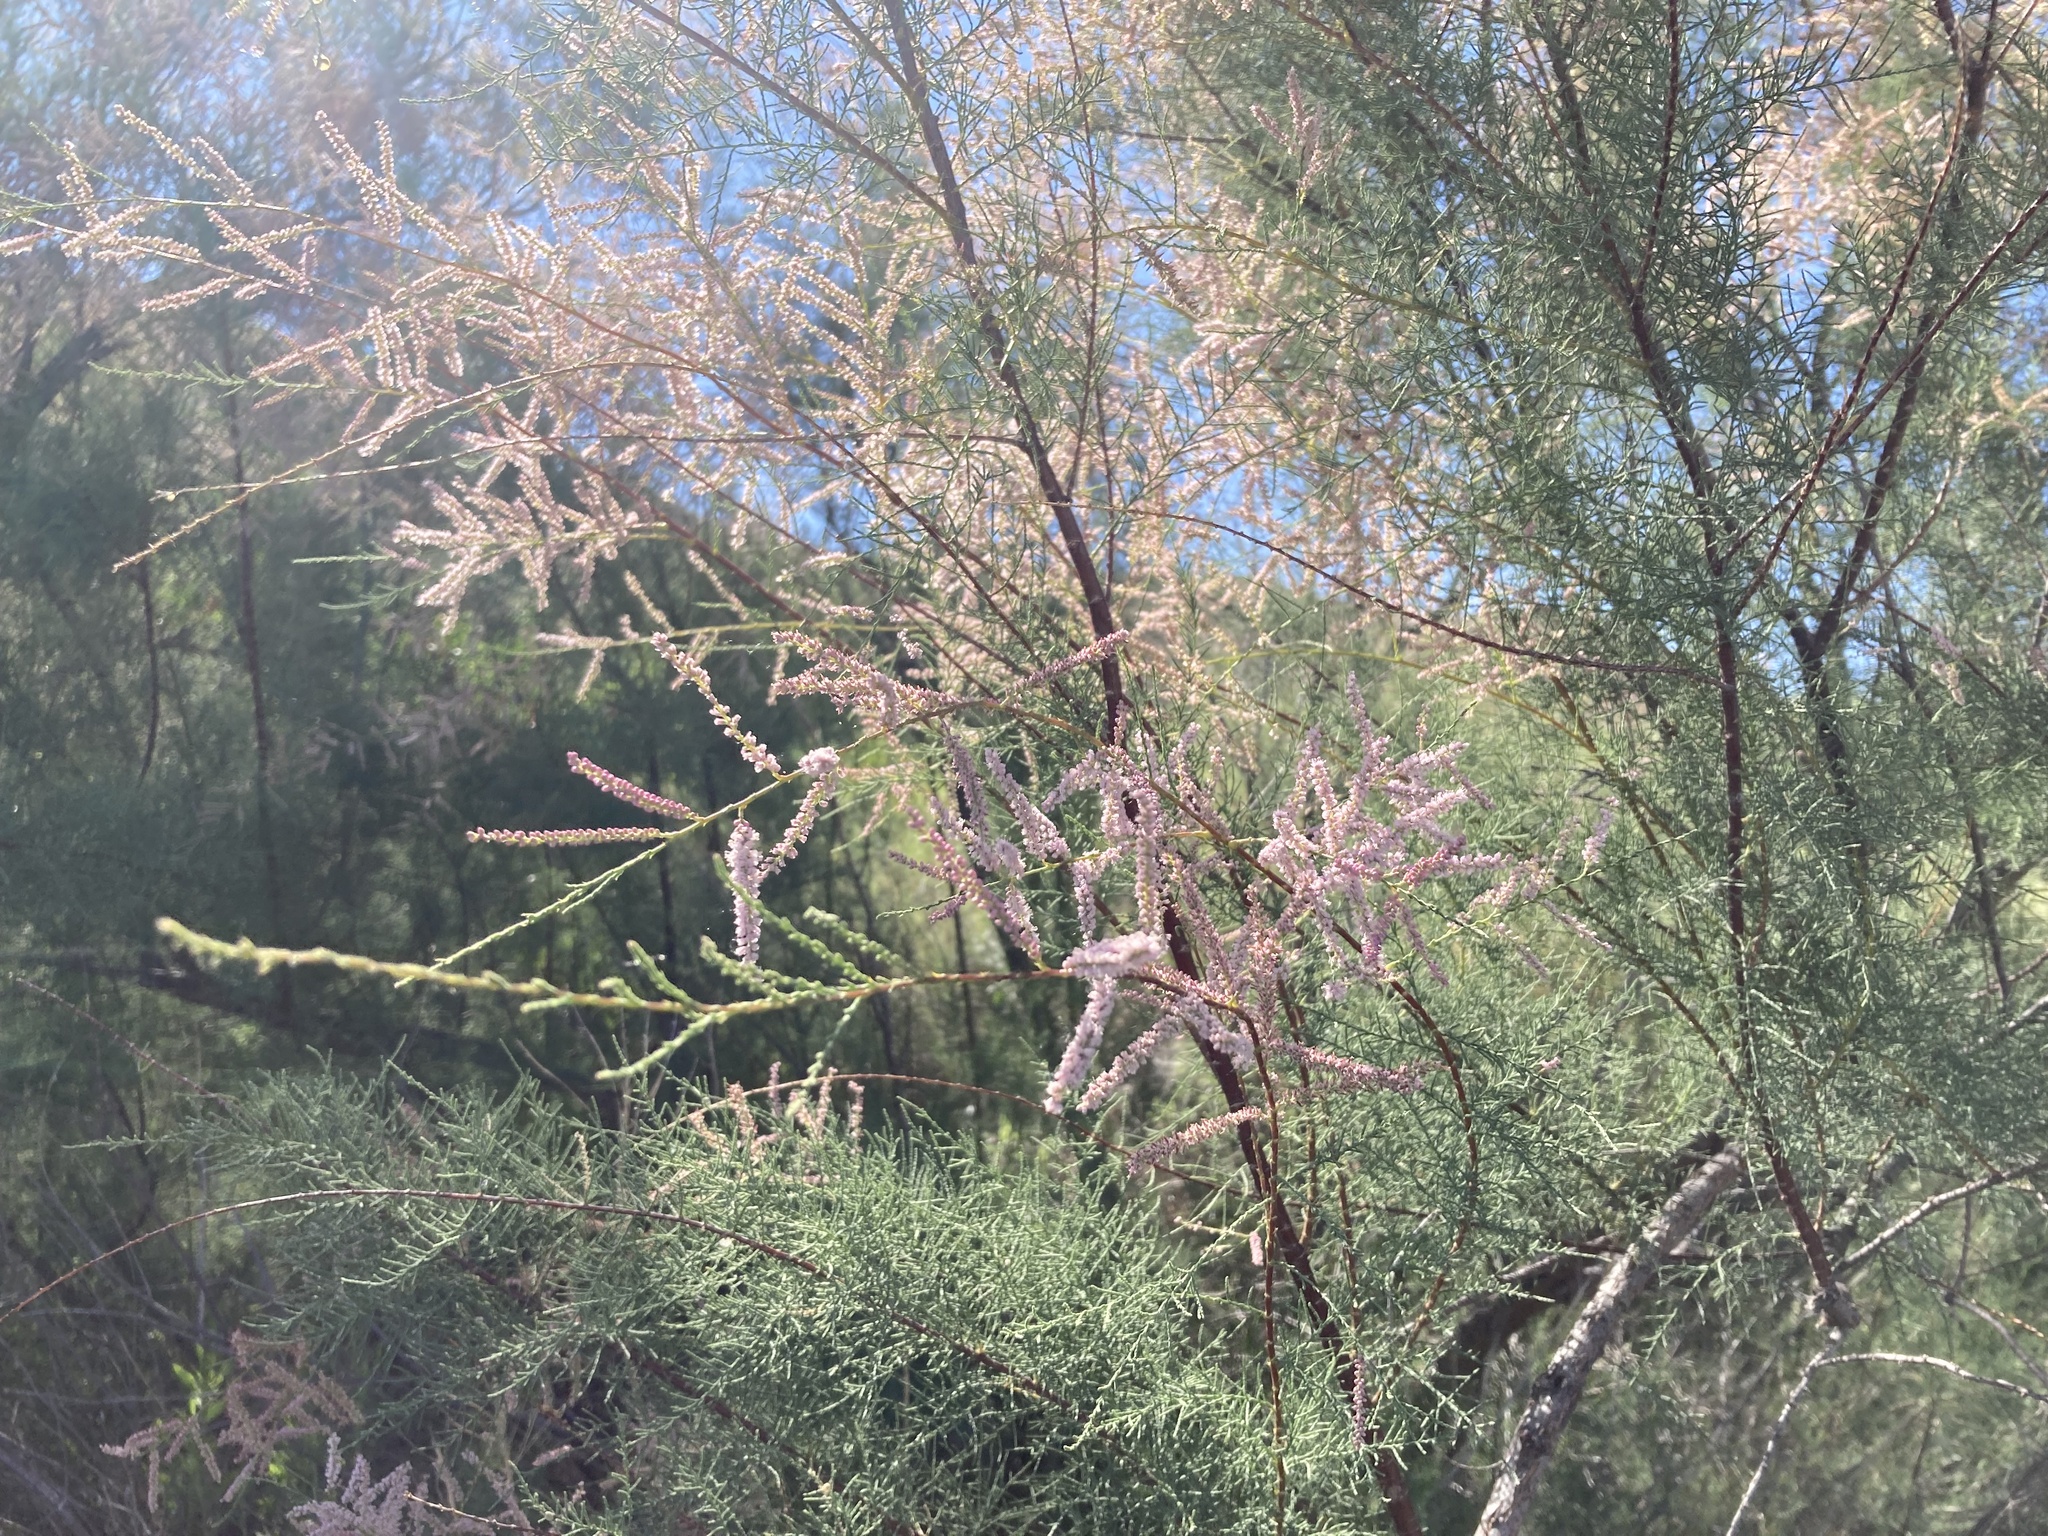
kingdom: Plantae
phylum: Tracheophyta
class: Magnoliopsida
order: Caryophyllales
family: Tamaricaceae
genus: Tamarix
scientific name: Tamarix
